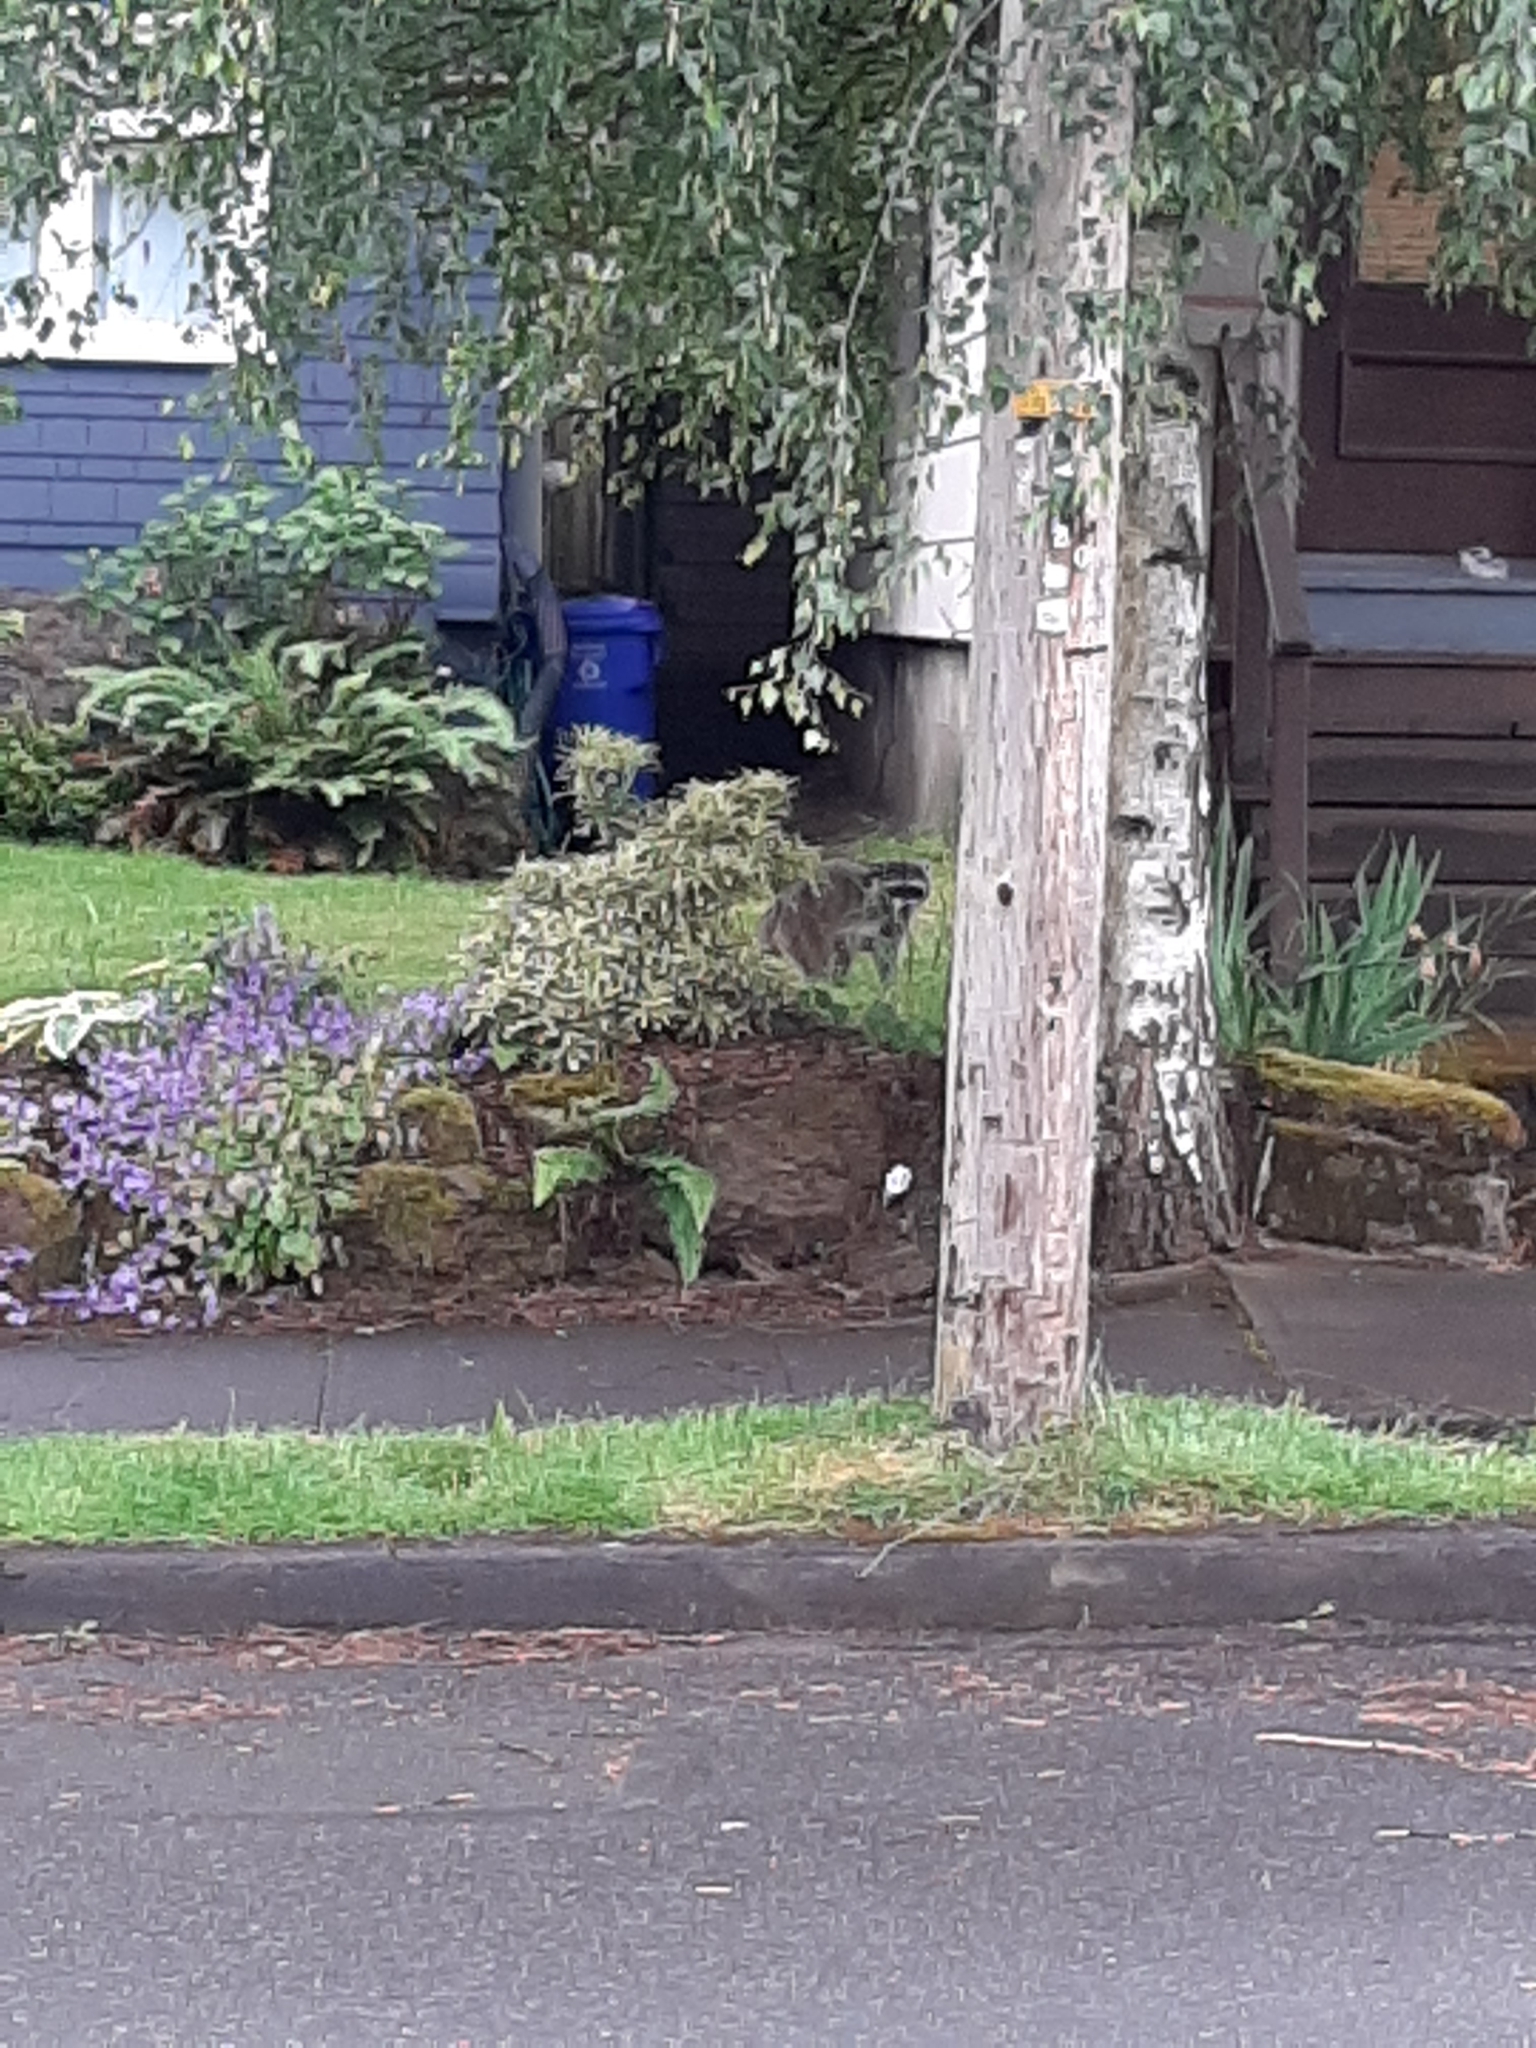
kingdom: Animalia
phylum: Chordata
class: Mammalia
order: Carnivora
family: Procyonidae
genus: Procyon
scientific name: Procyon lotor
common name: Raccoon
